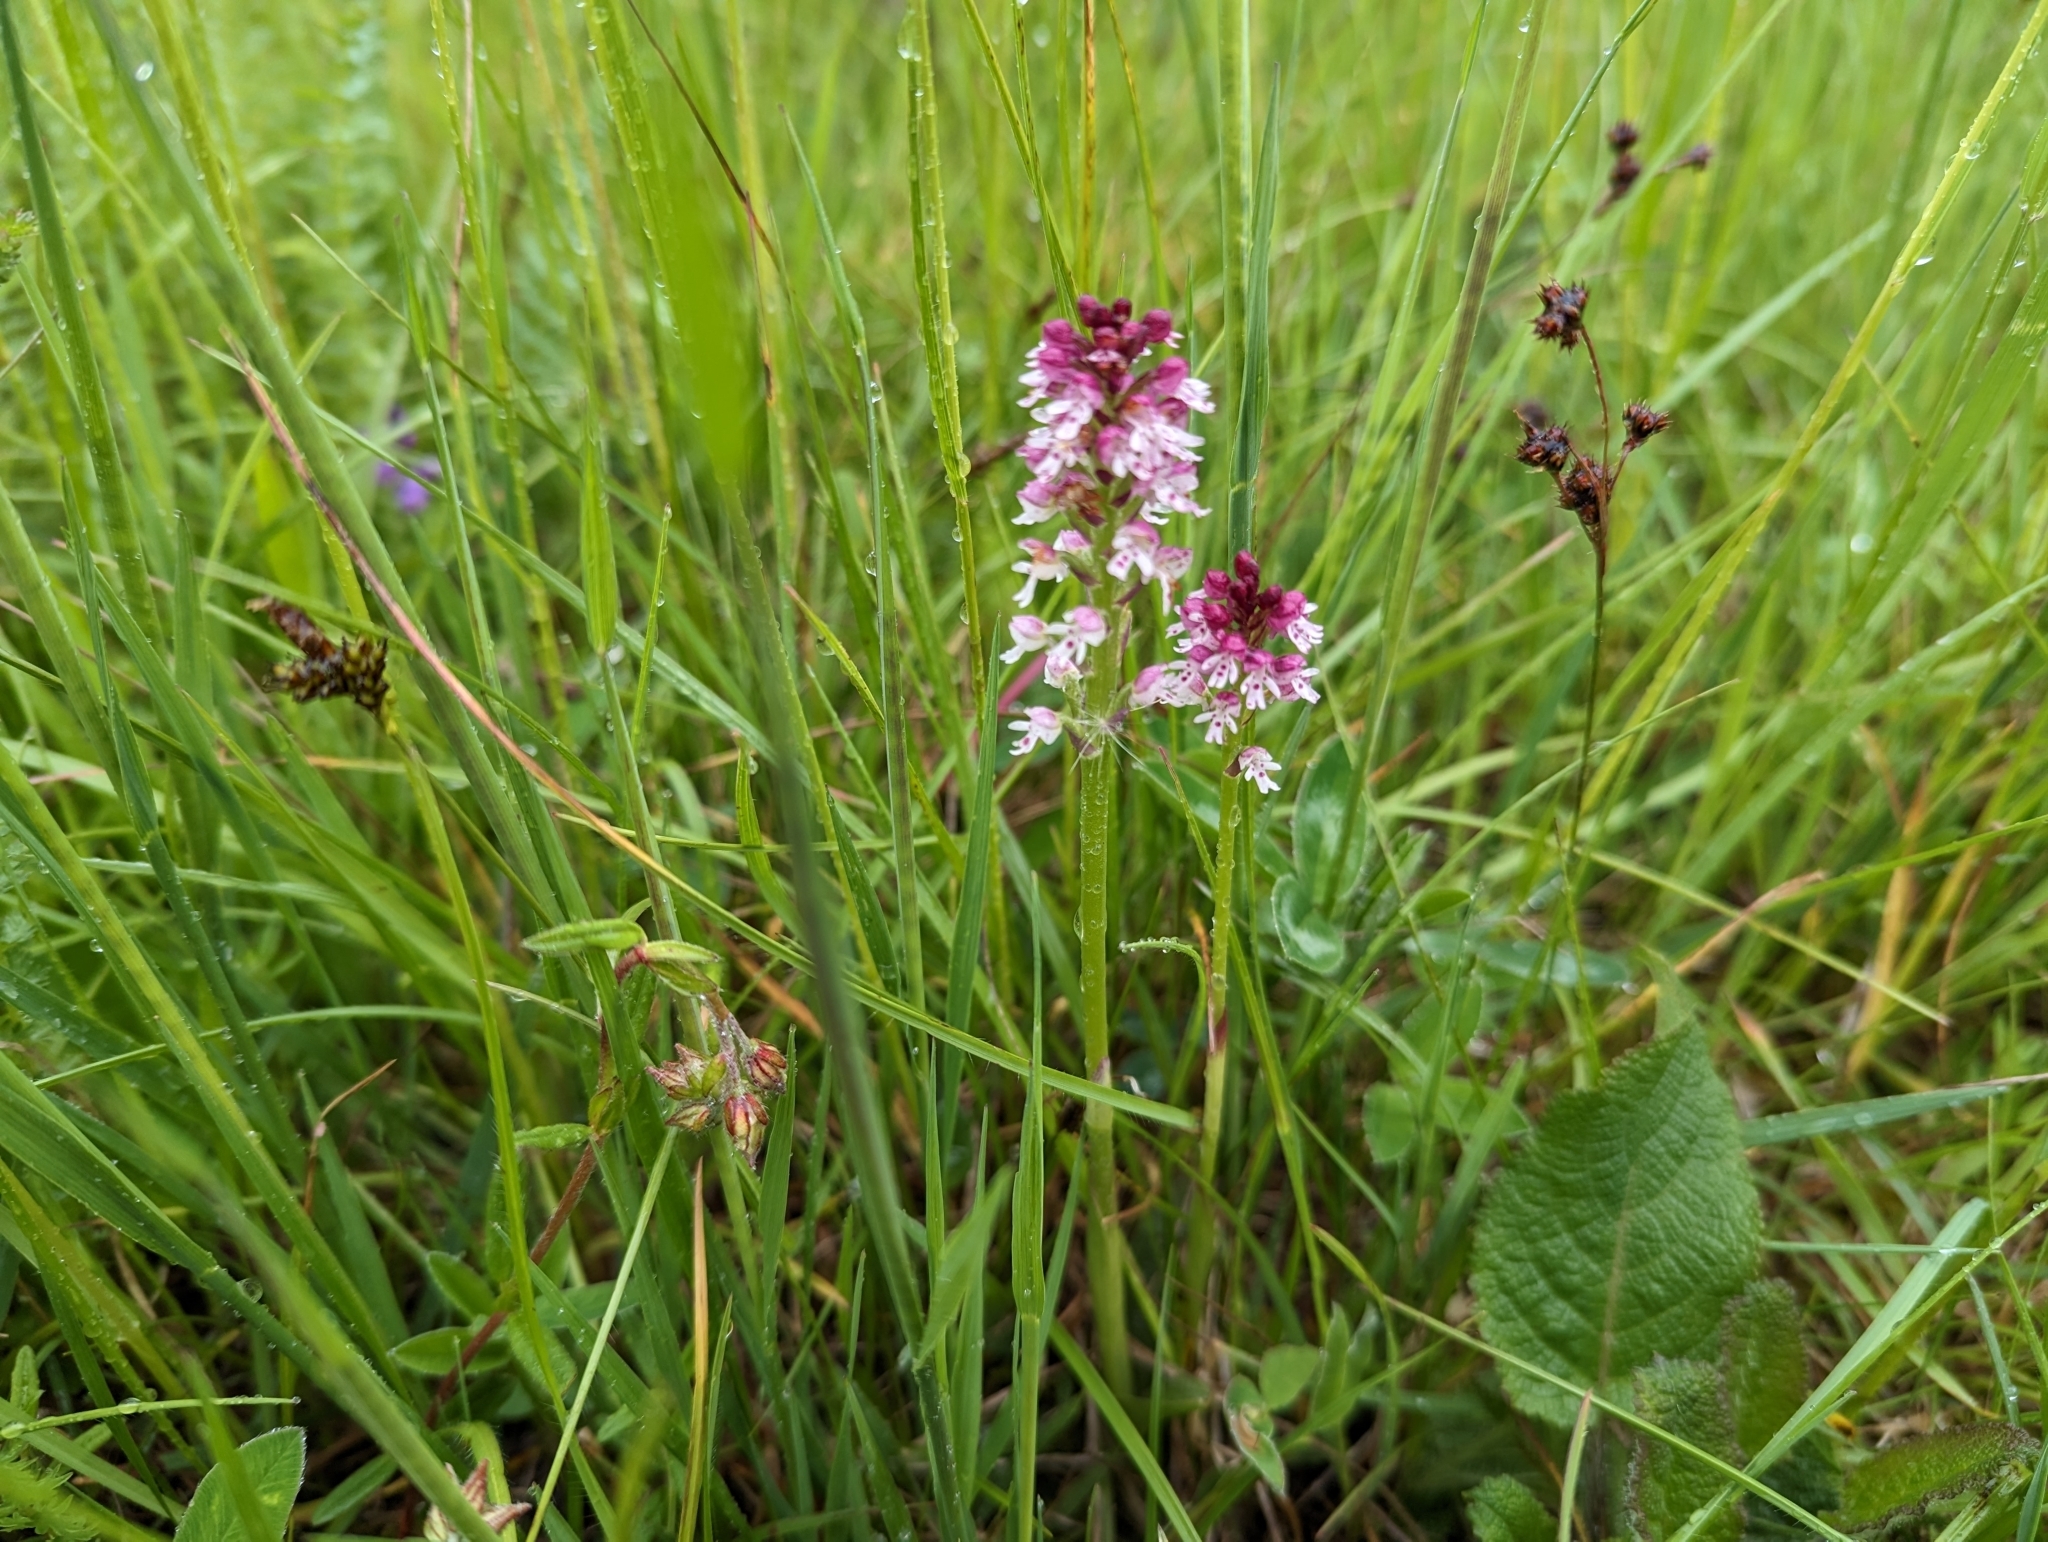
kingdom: Plantae
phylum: Tracheophyta
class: Liliopsida
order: Asparagales
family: Orchidaceae
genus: Neotinea
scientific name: Neotinea ustulata
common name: Burnt orchid
